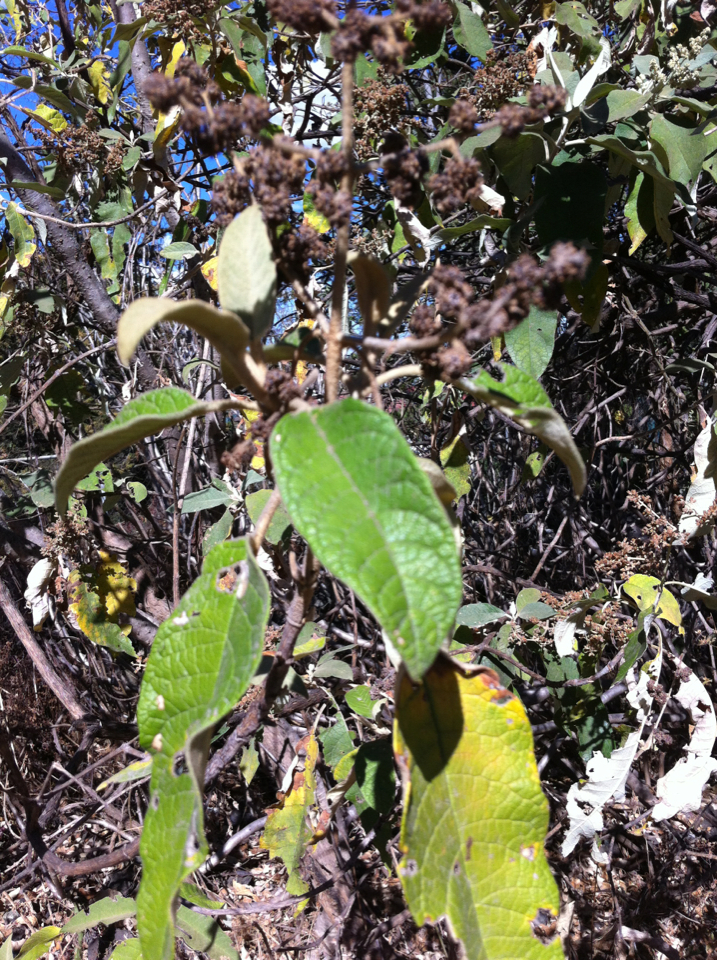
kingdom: Plantae
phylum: Tracheophyta
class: Magnoliopsida
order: Lamiales
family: Scrophulariaceae
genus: Buddleja
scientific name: Buddleja cordata
